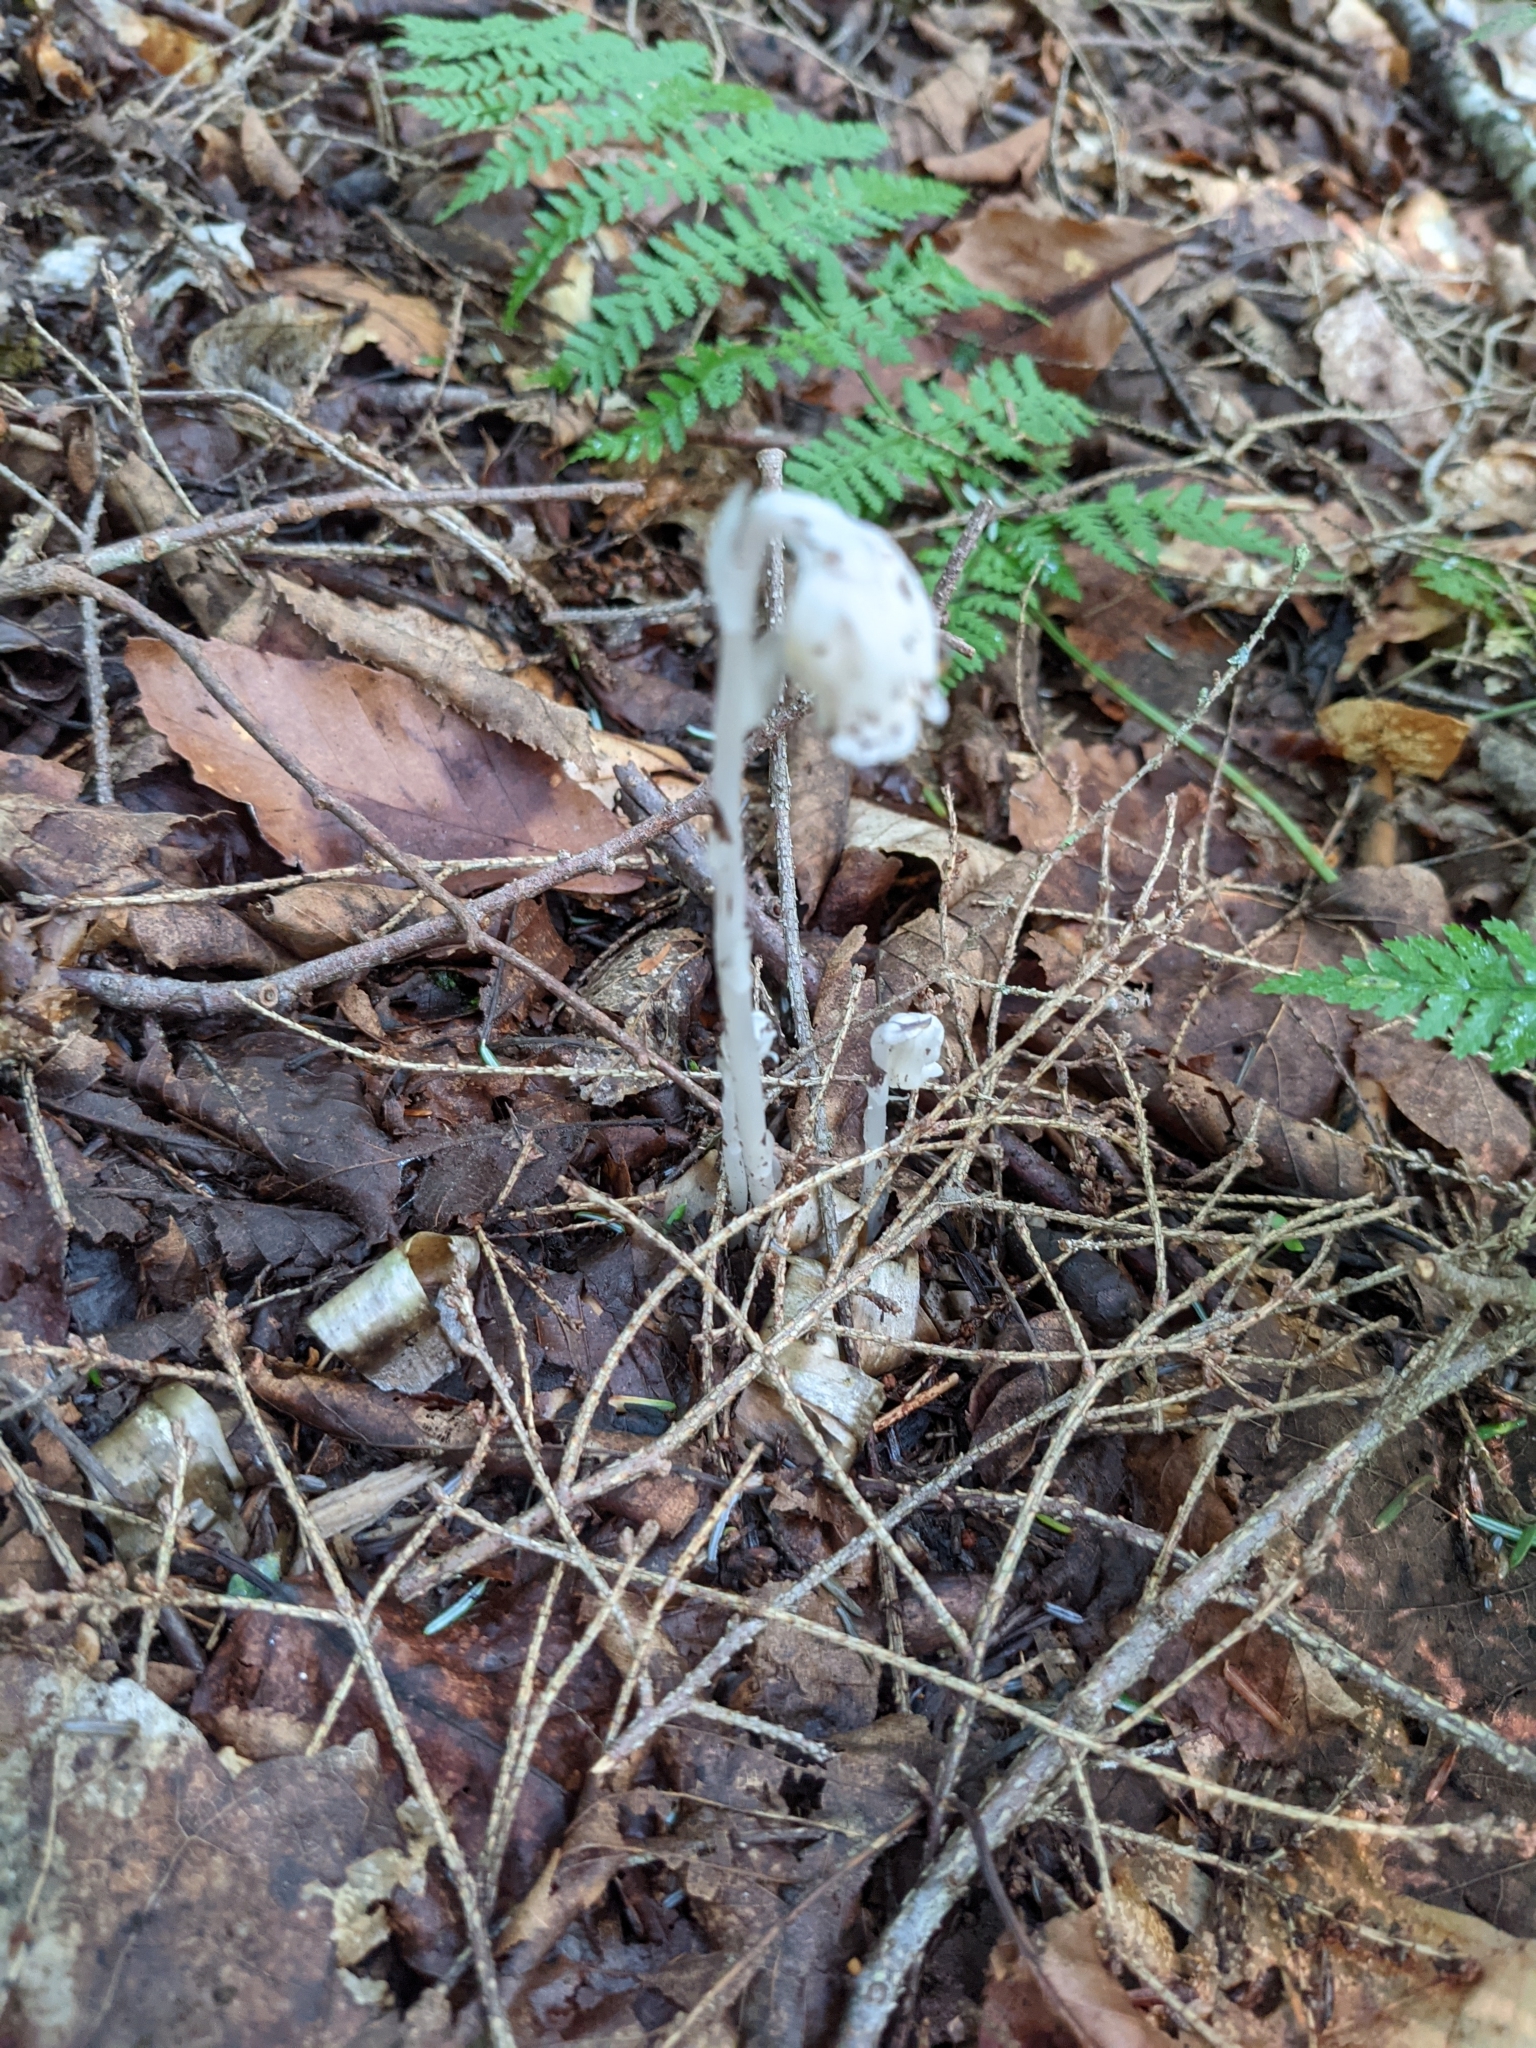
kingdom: Plantae
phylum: Tracheophyta
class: Magnoliopsida
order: Ericales
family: Ericaceae
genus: Monotropa
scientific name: Monotropa uniflora
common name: Convulsion root
